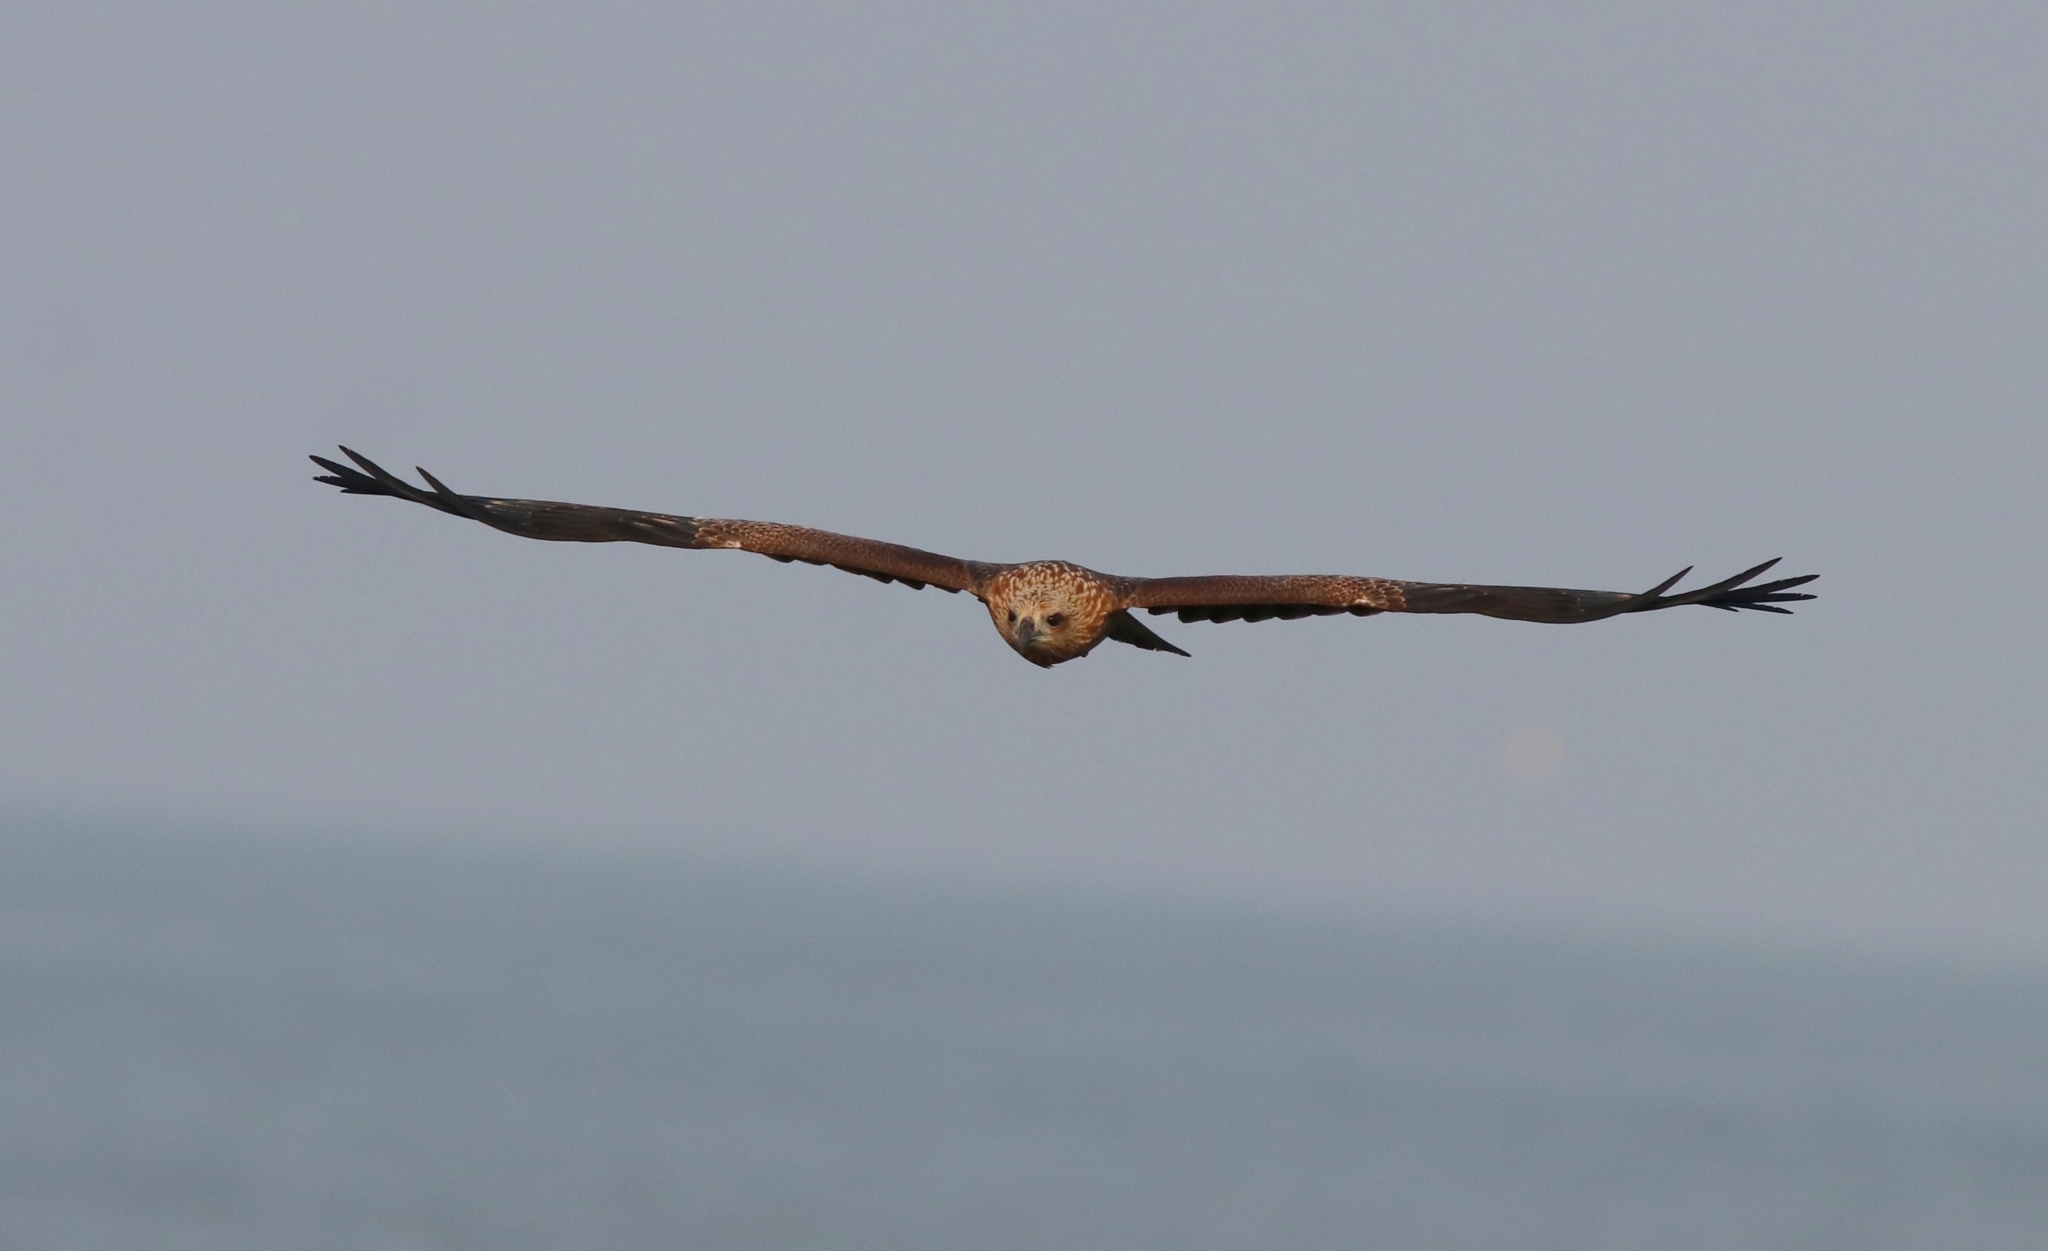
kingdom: Animalia
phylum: Chordata
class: Aves
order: Accipitriformes
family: Accipitridae
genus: Haliastur
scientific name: Haliastur indus
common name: Brahminy kite
